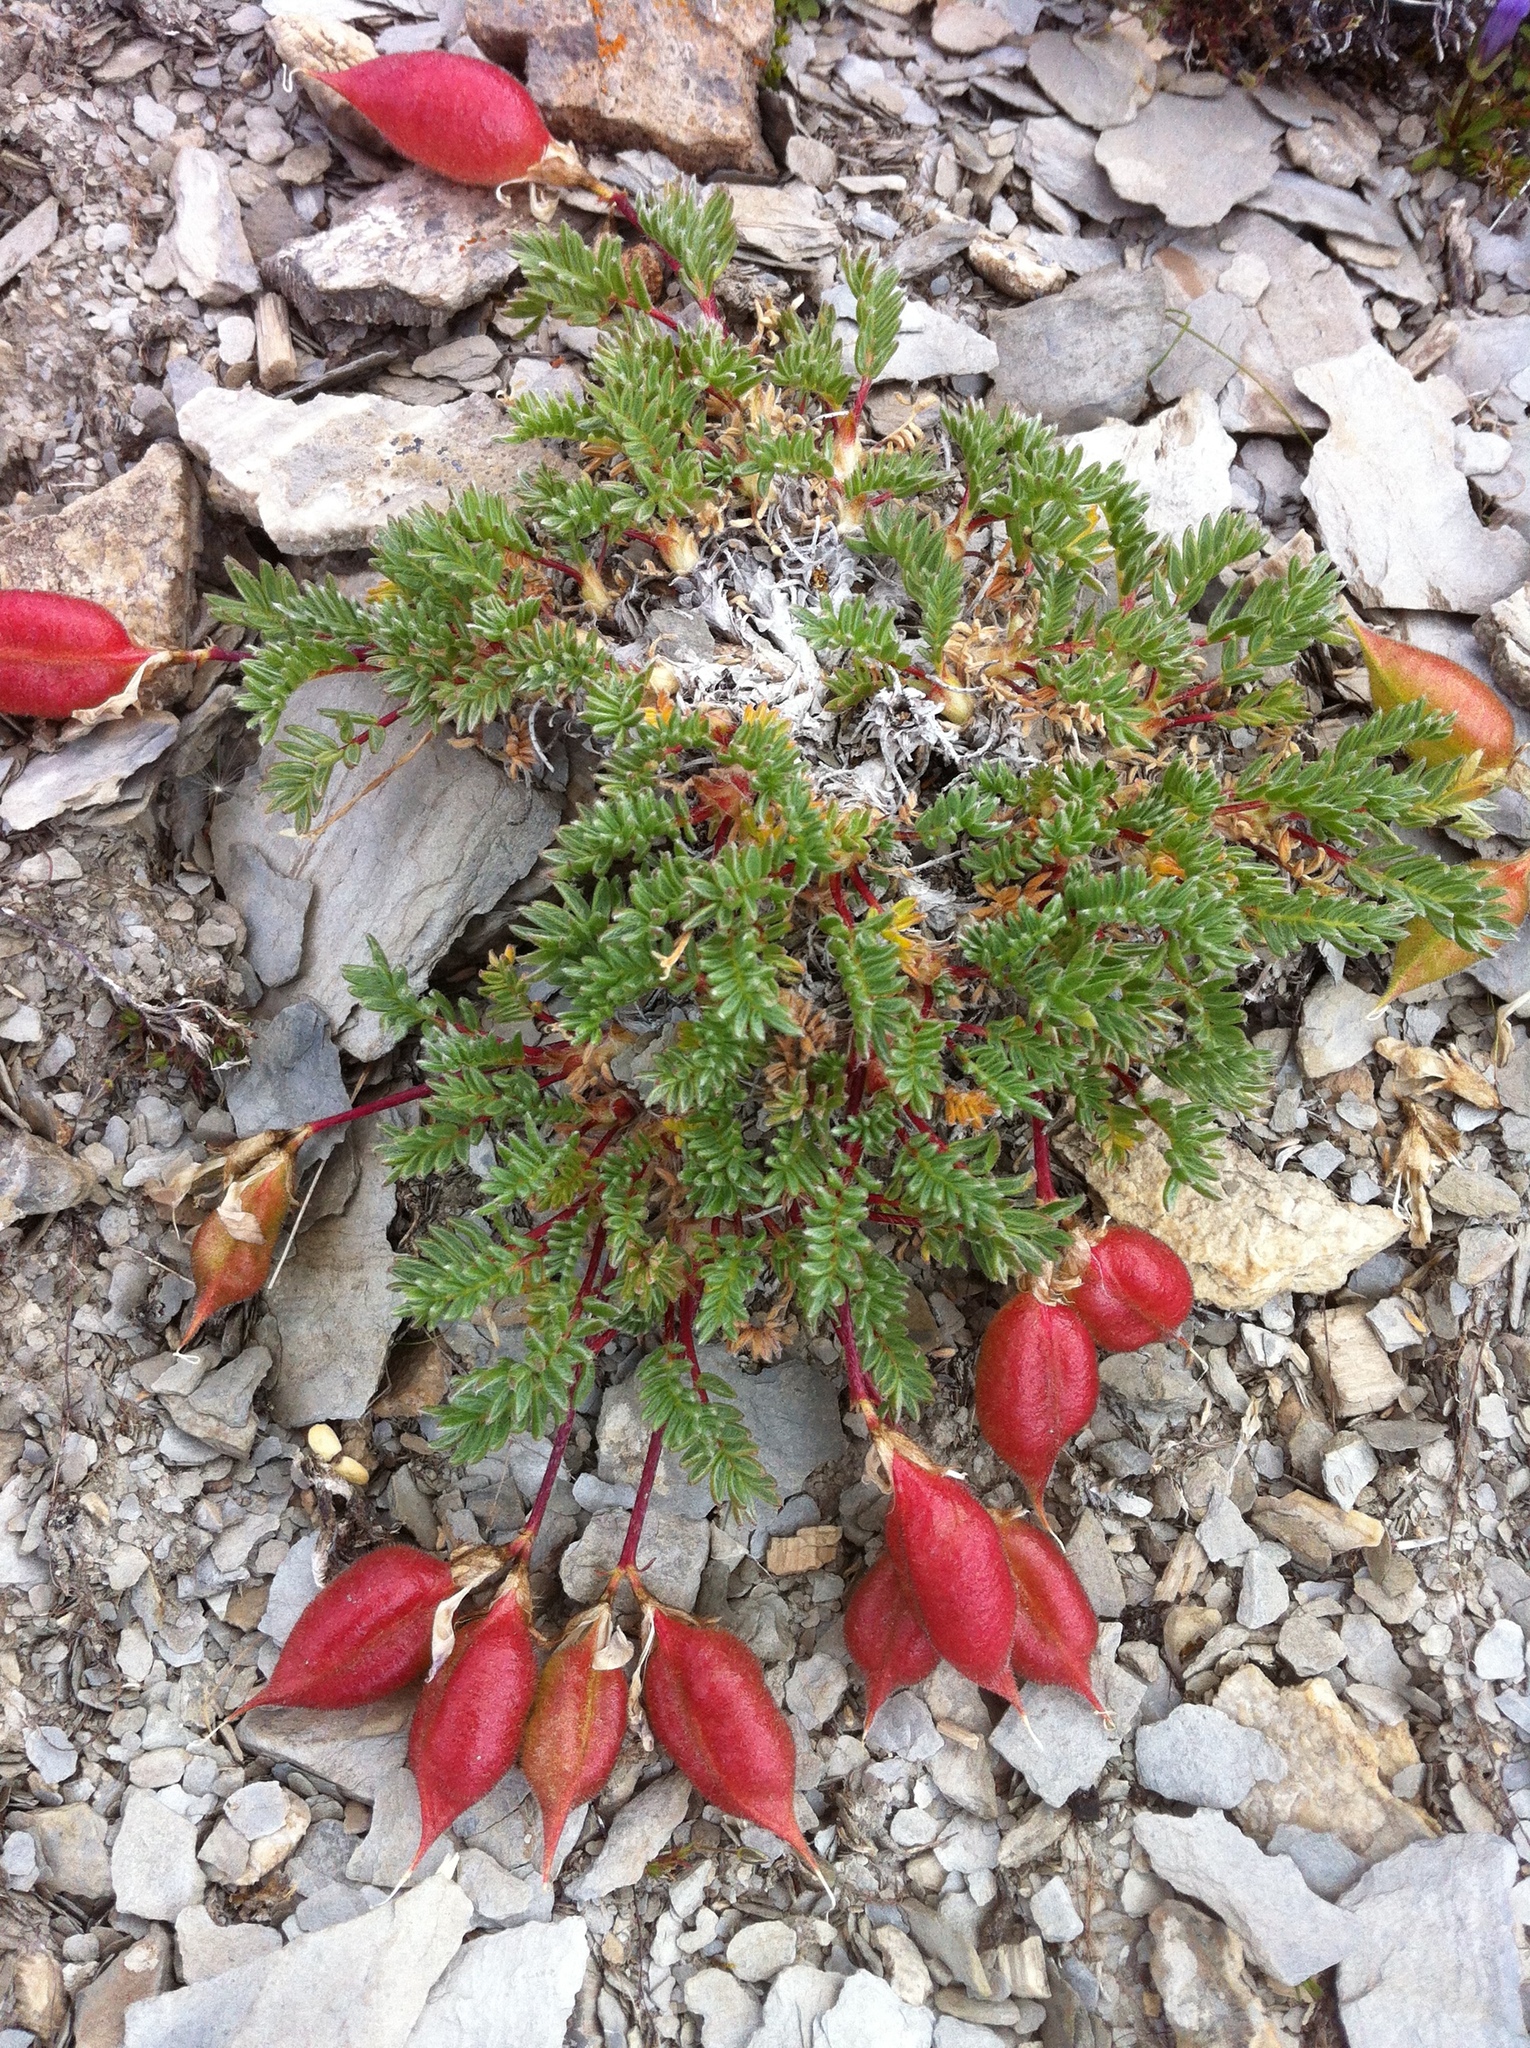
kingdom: Plantae
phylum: Tracheophyta
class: Magnoliopsida
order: Fabales
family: Fabaceae
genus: Oxytropis
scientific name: Oxytropis podocarpa
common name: Gray's oxytrope
